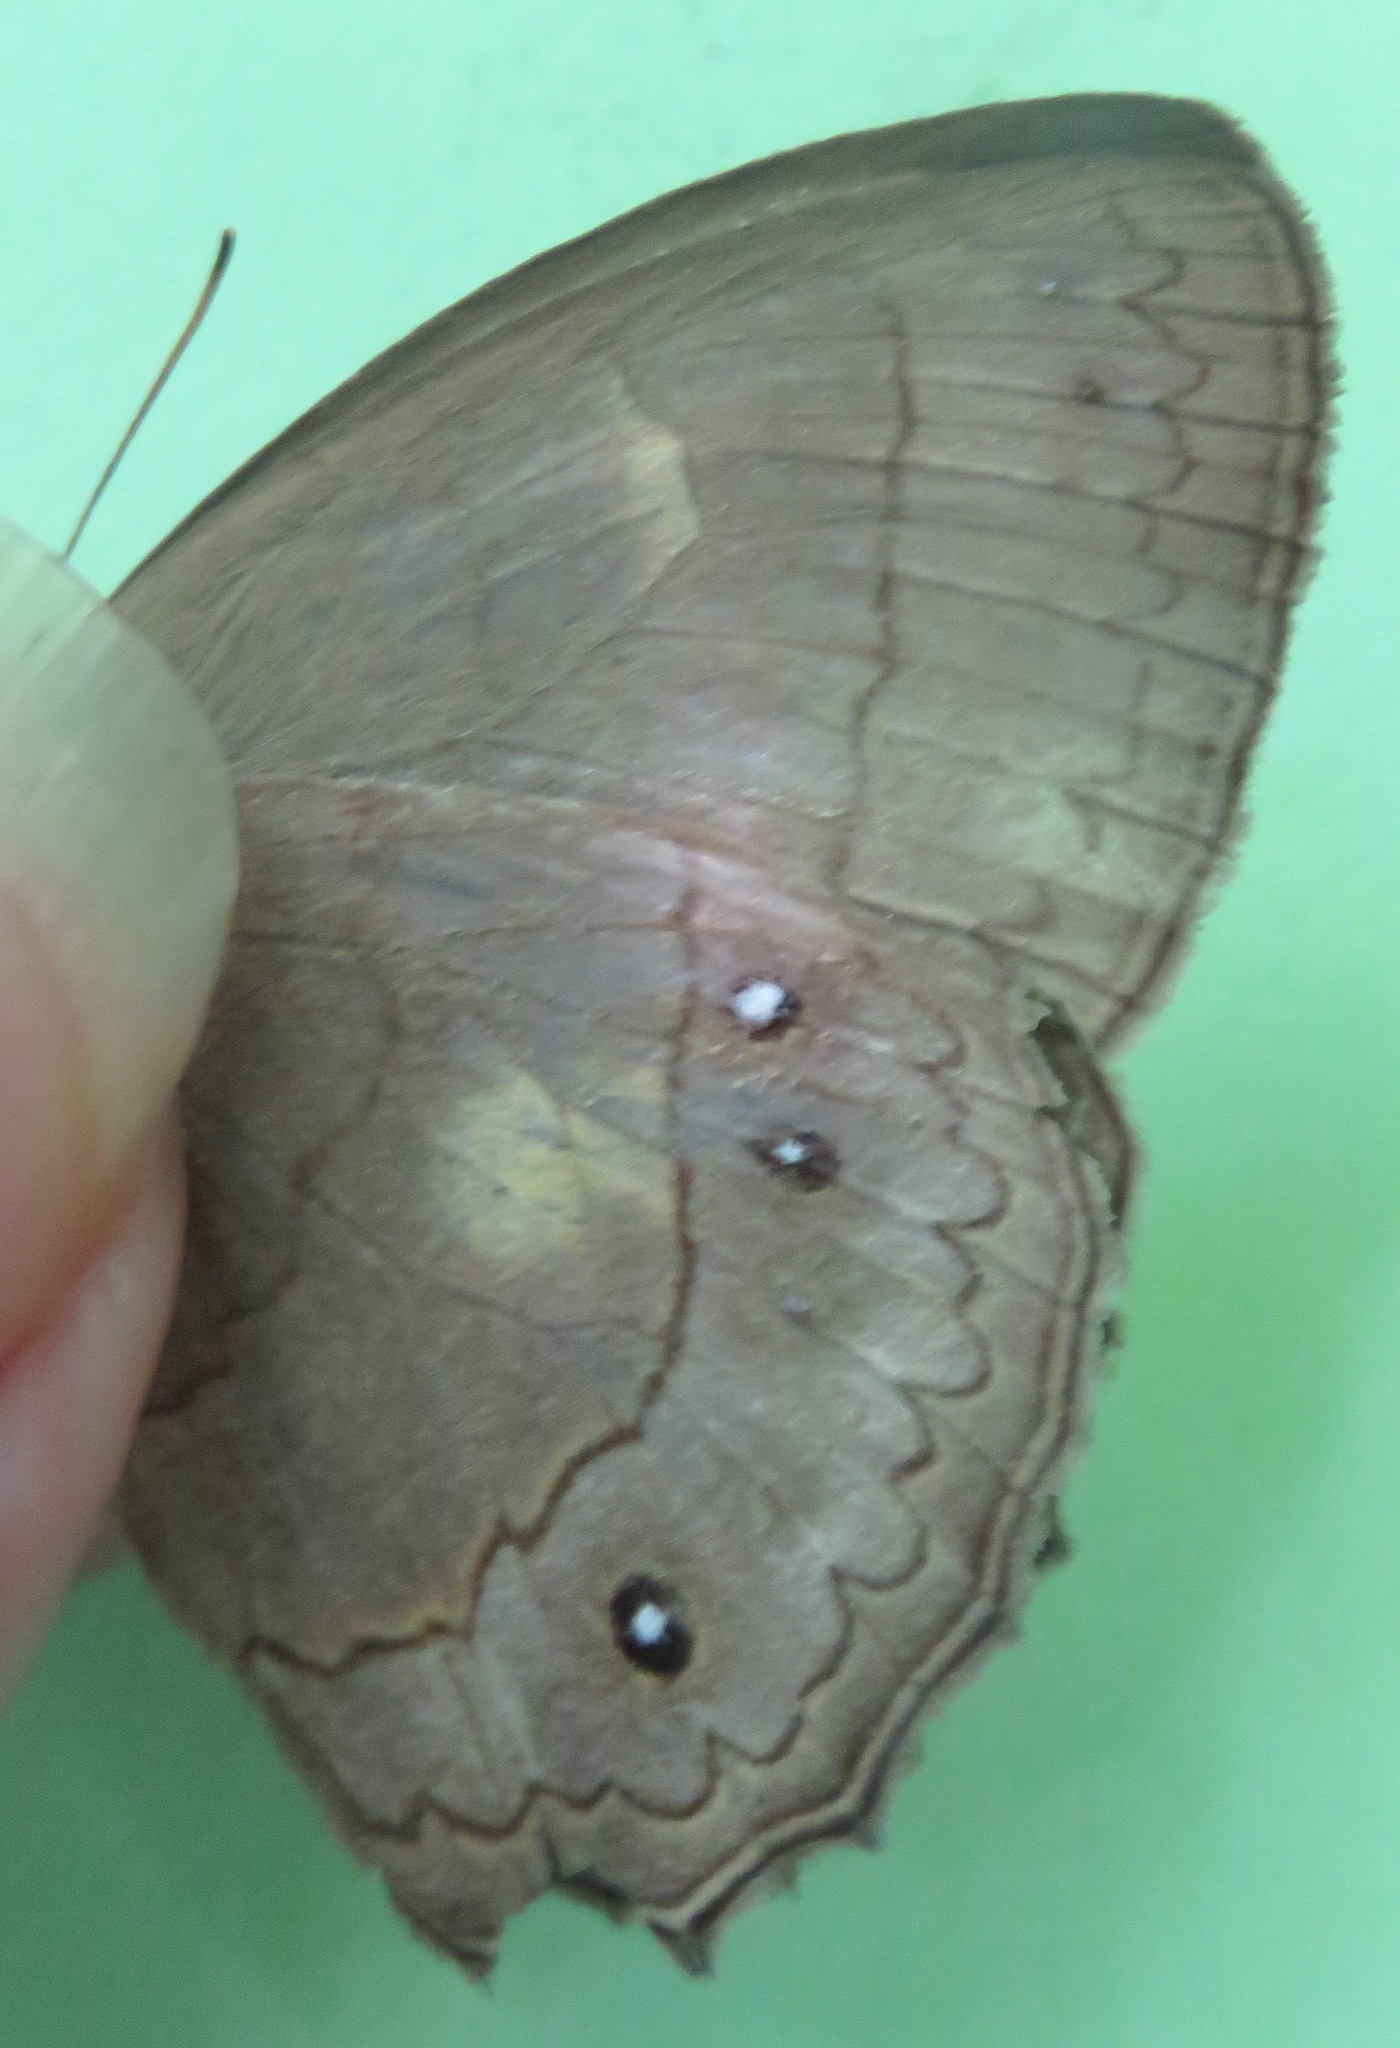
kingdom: Animalia
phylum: Arthropoda
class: Insecta
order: Lepidoptera
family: Nymphalidae
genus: Taygetina
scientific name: Taygetina kerea
